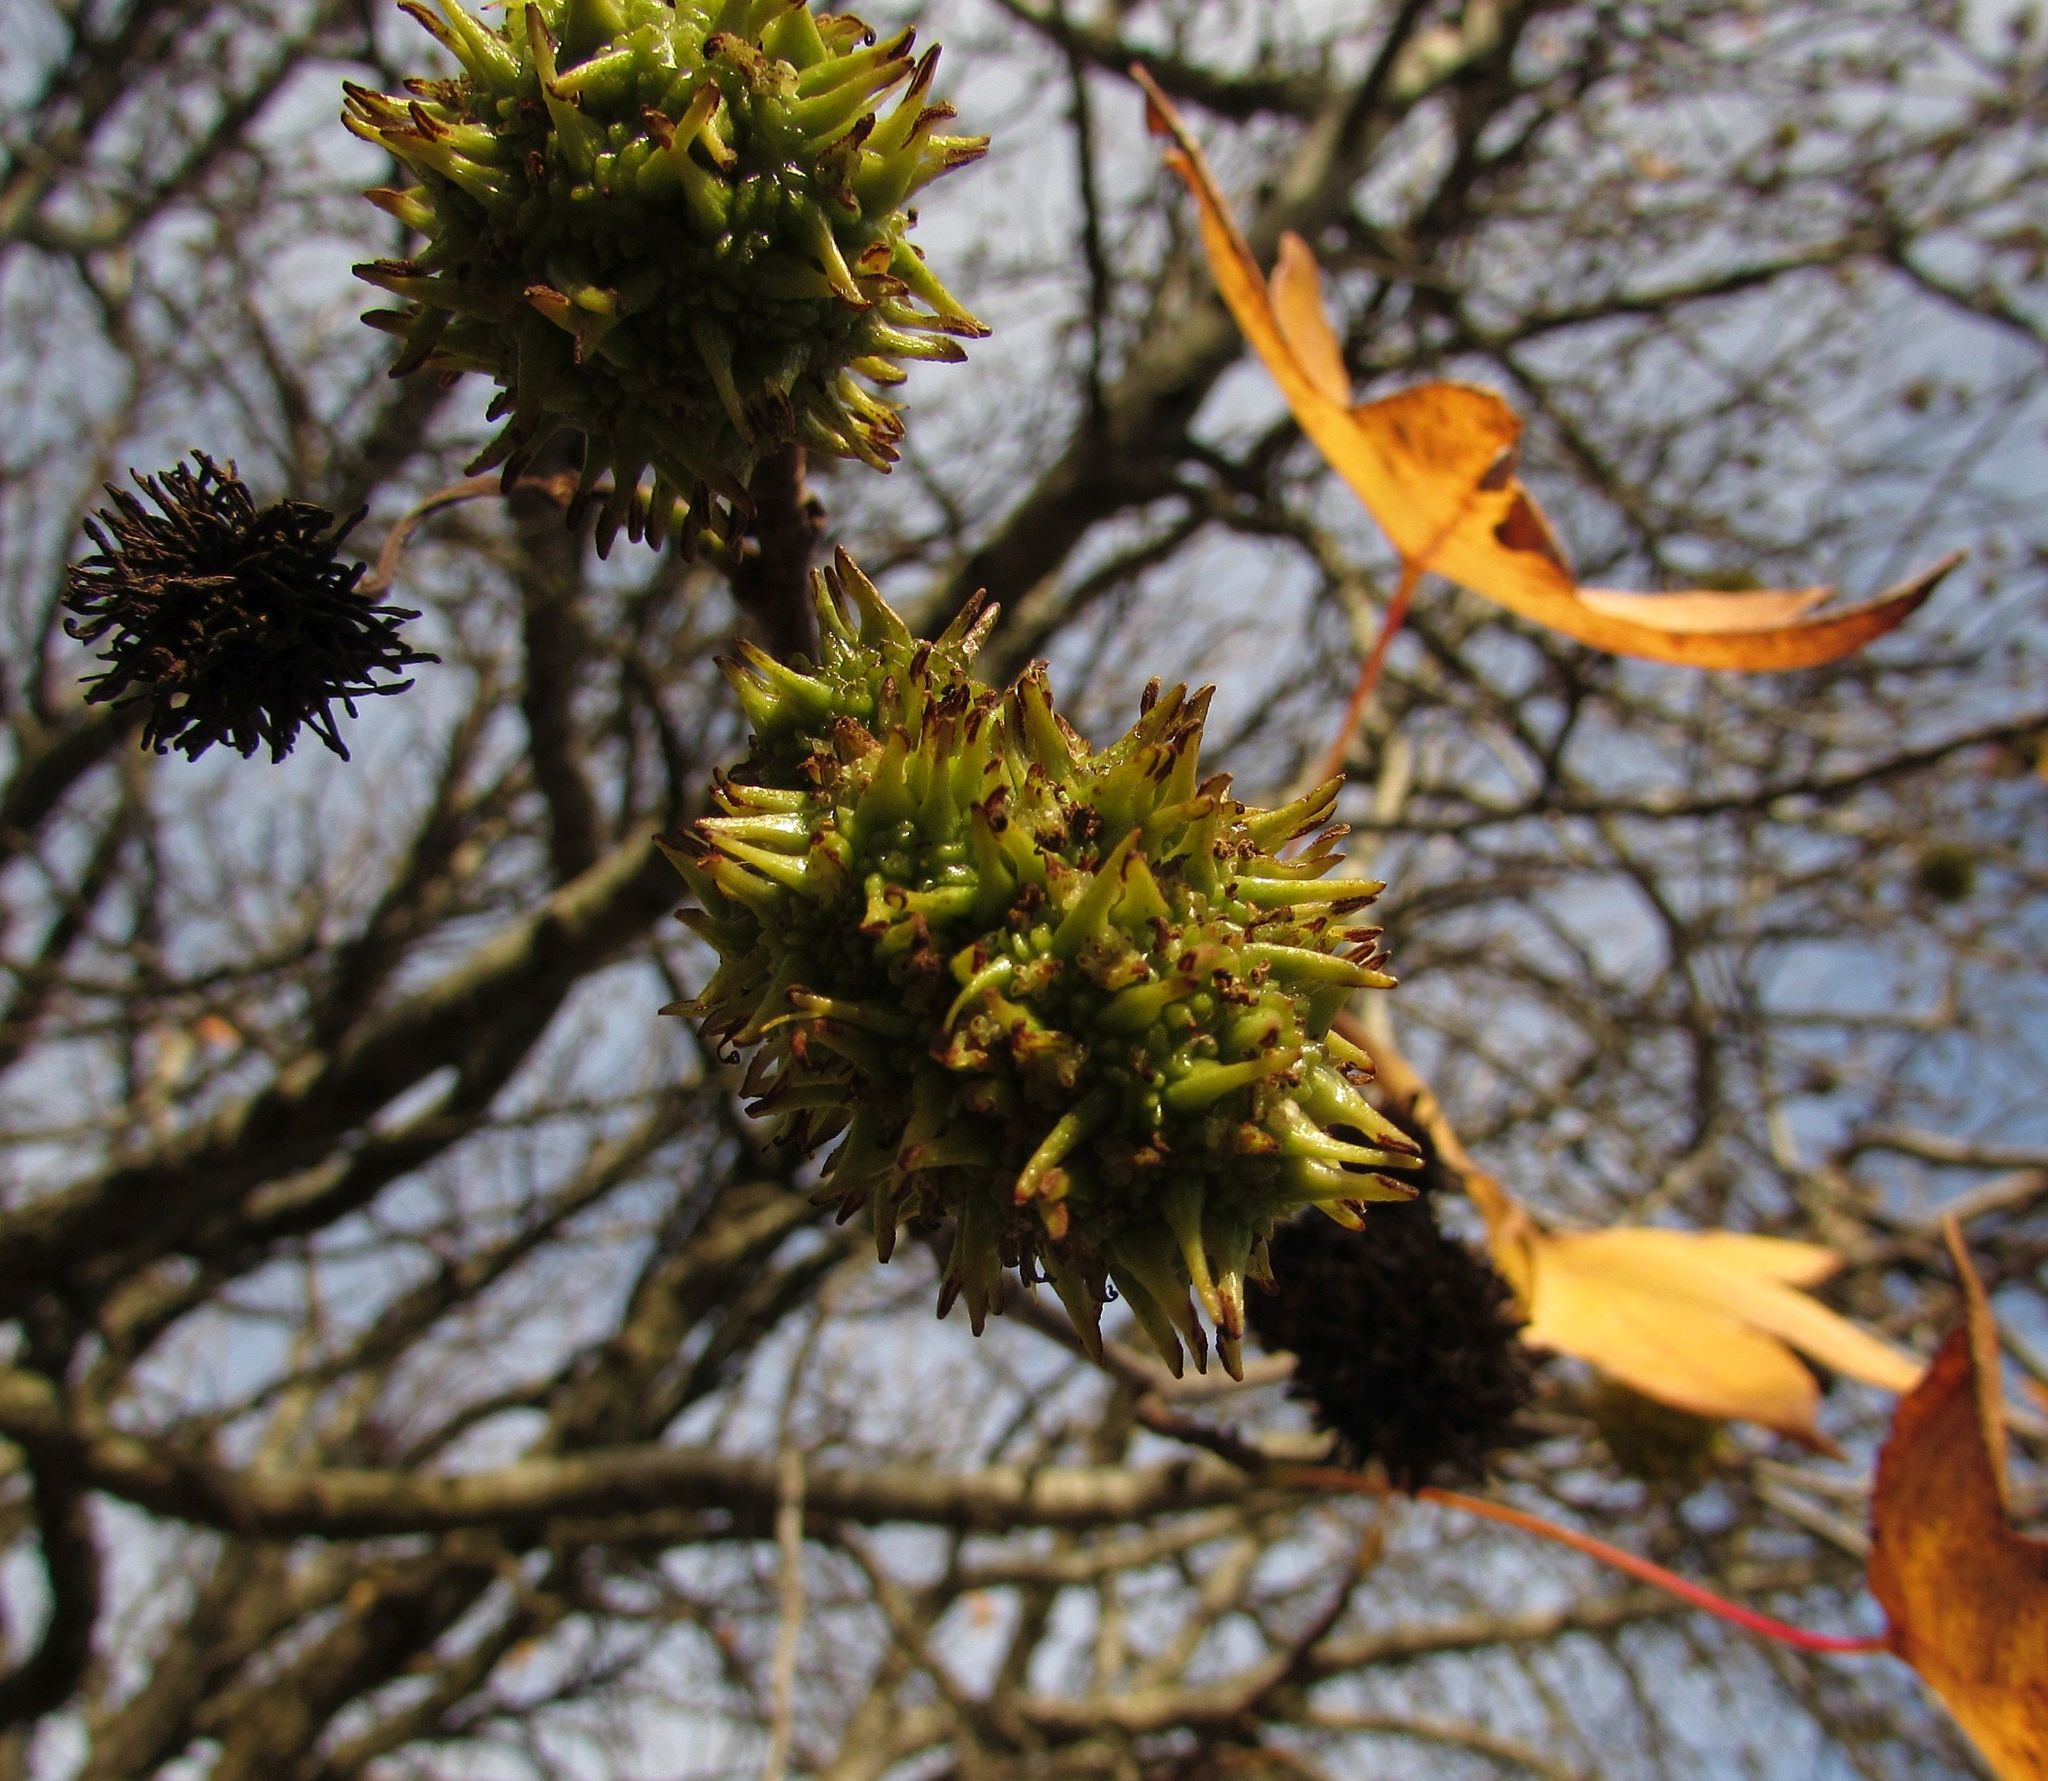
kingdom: Plantae
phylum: Tracheophyta
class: Magnoliopsida
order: Saxifragales
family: Altingiaceae
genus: Liquidambar
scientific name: Liquidambar styraciflua
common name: Sweet gum
